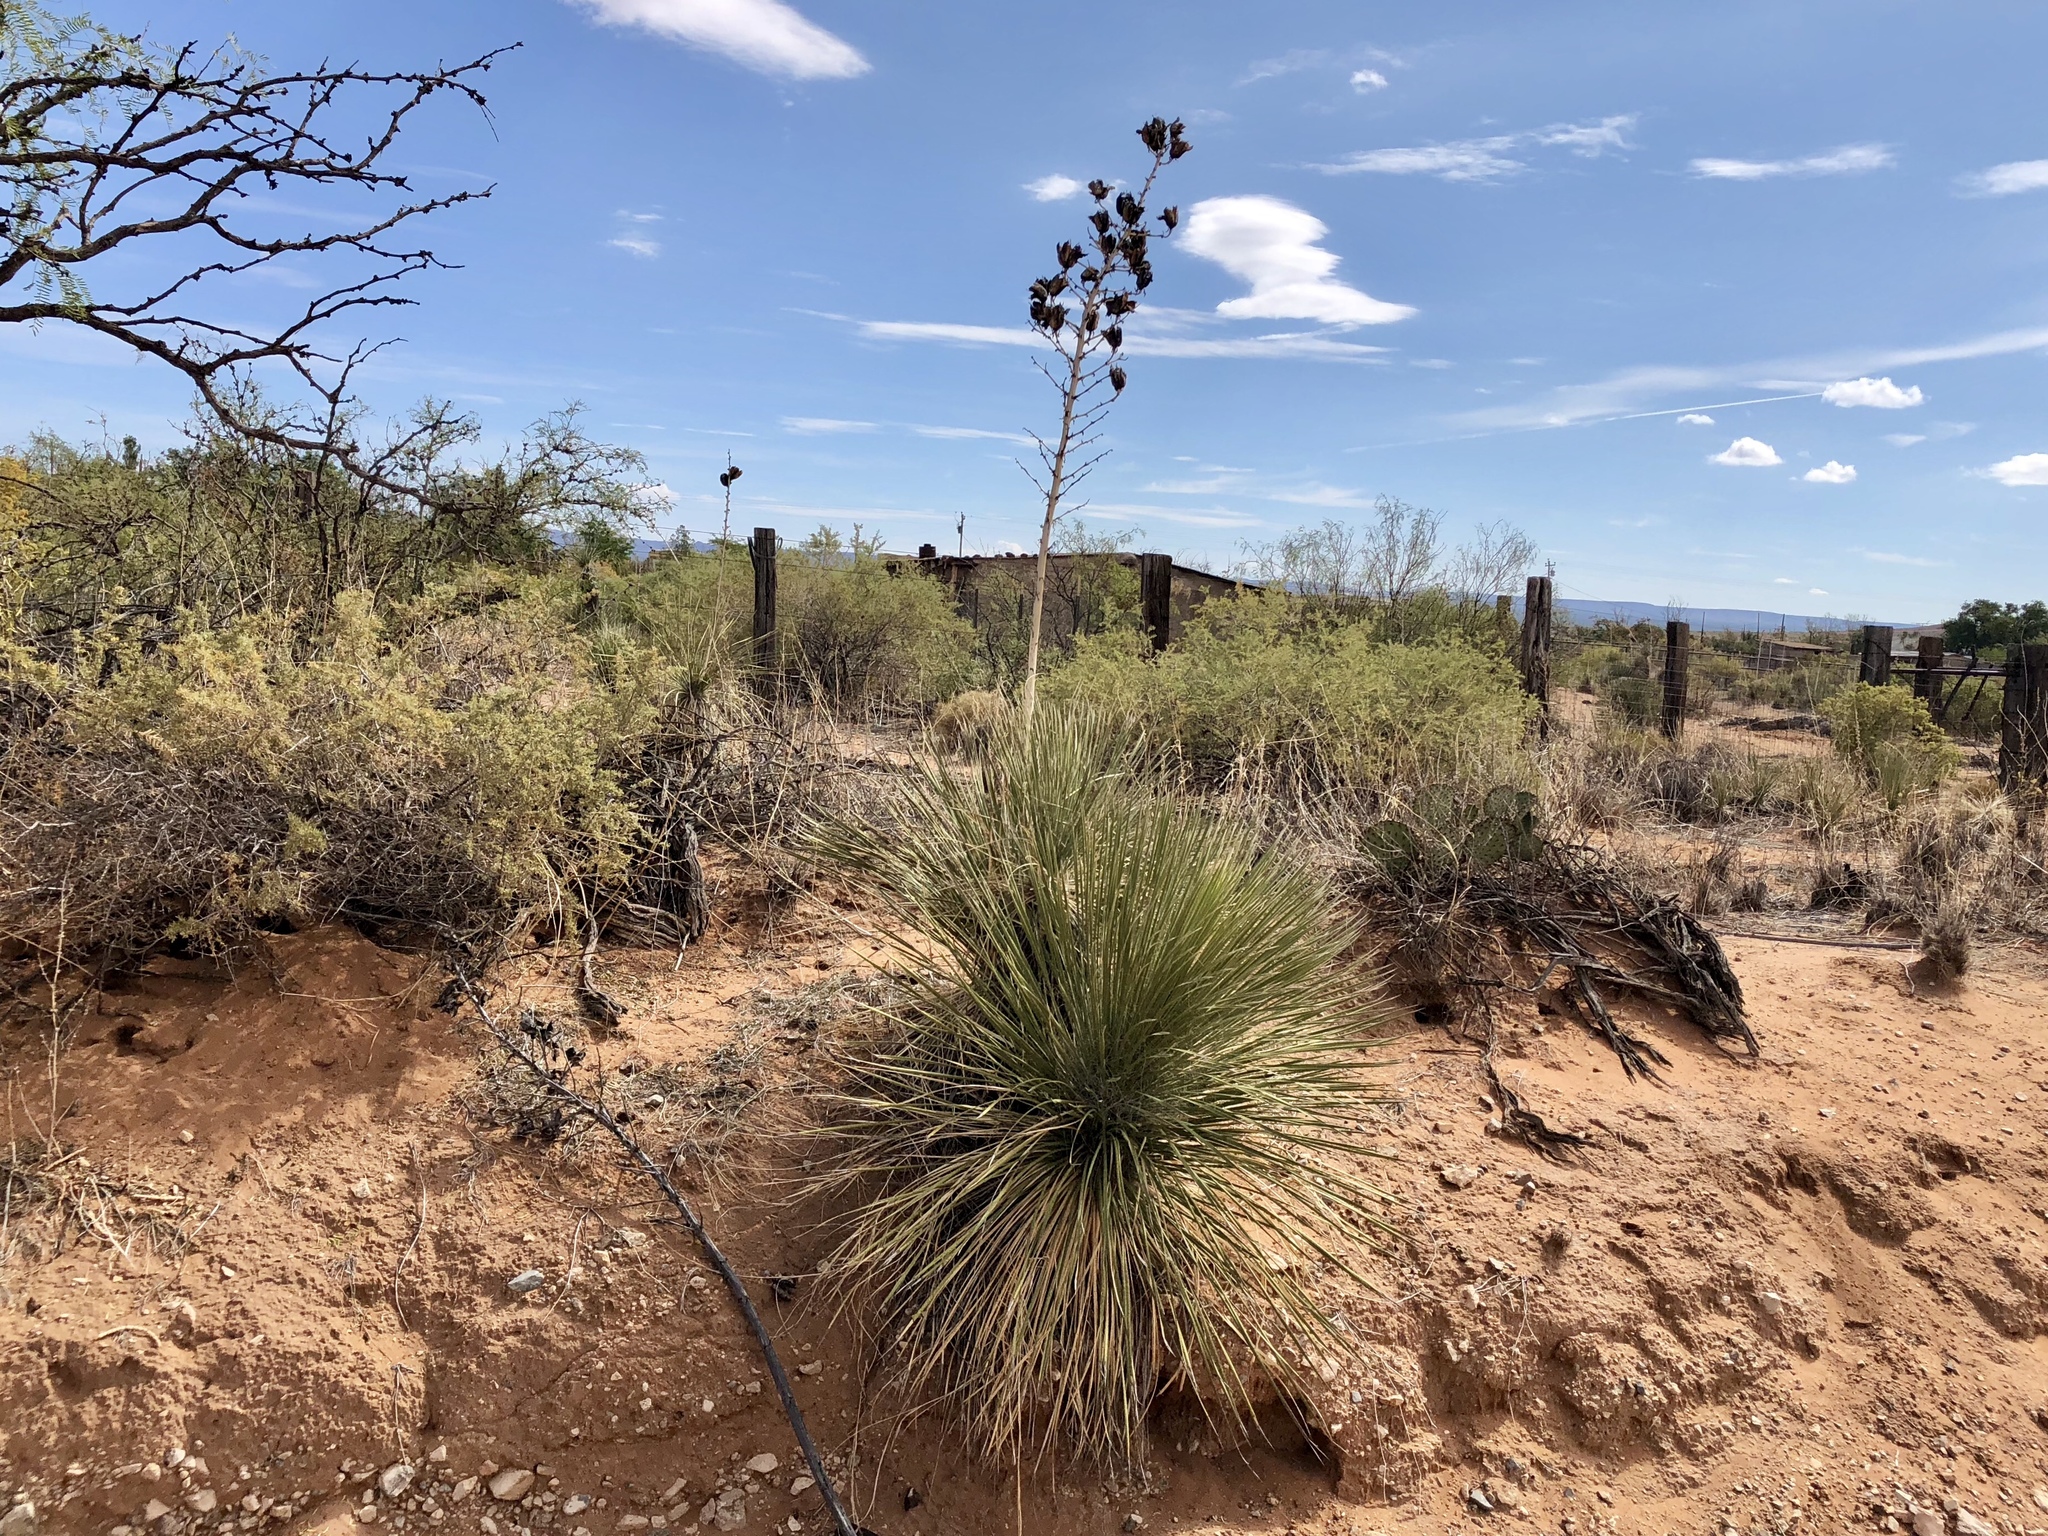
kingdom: Plantae
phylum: Tracheophyta
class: Liliopsida
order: Asparagales
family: Asparagaceae
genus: Yucca
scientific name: Yucca elata
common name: Palmella
